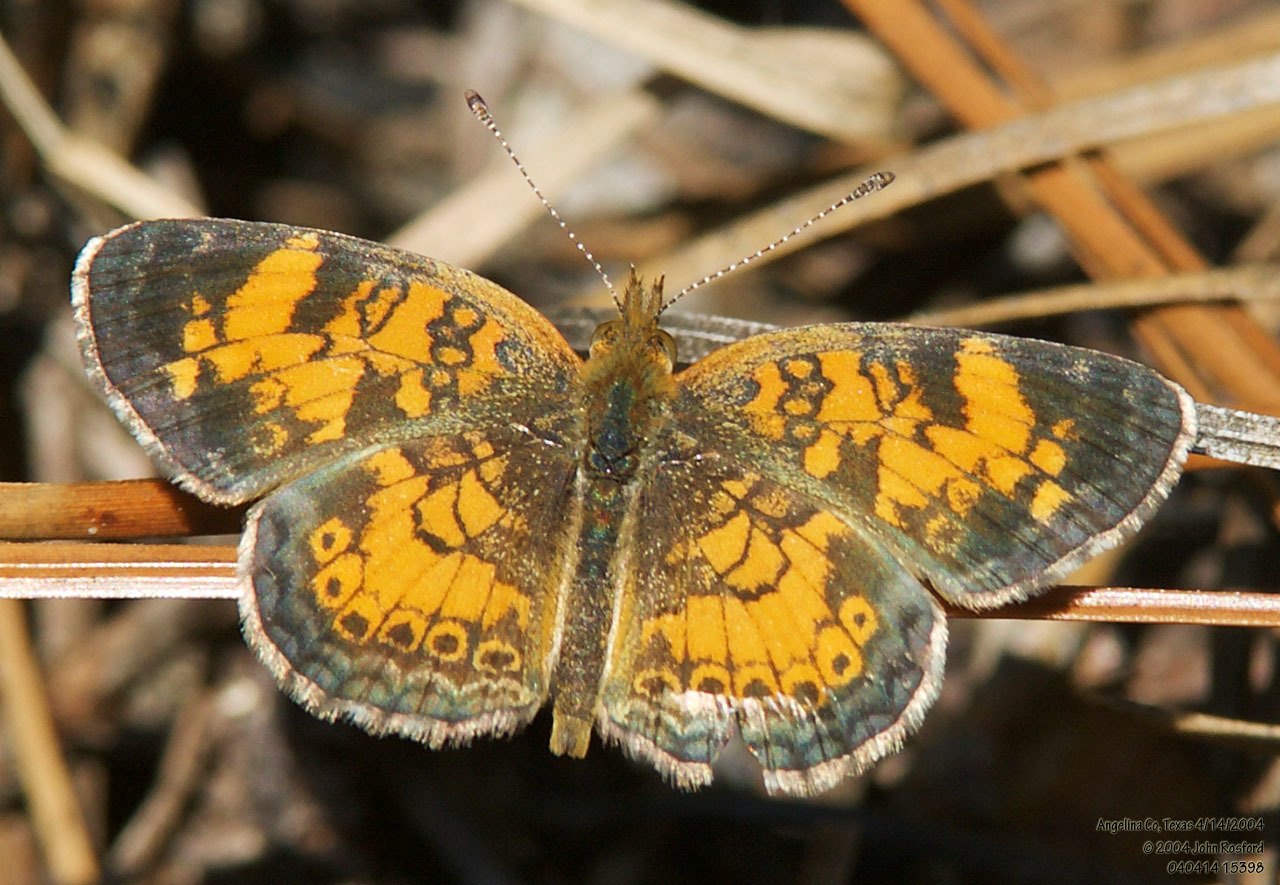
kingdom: Animalia
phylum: Arthropoda
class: Insecta
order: Lepidoptera
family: Nymphalidae
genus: Phyciodes
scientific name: Phyciodes tharos
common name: Pearl crescent
